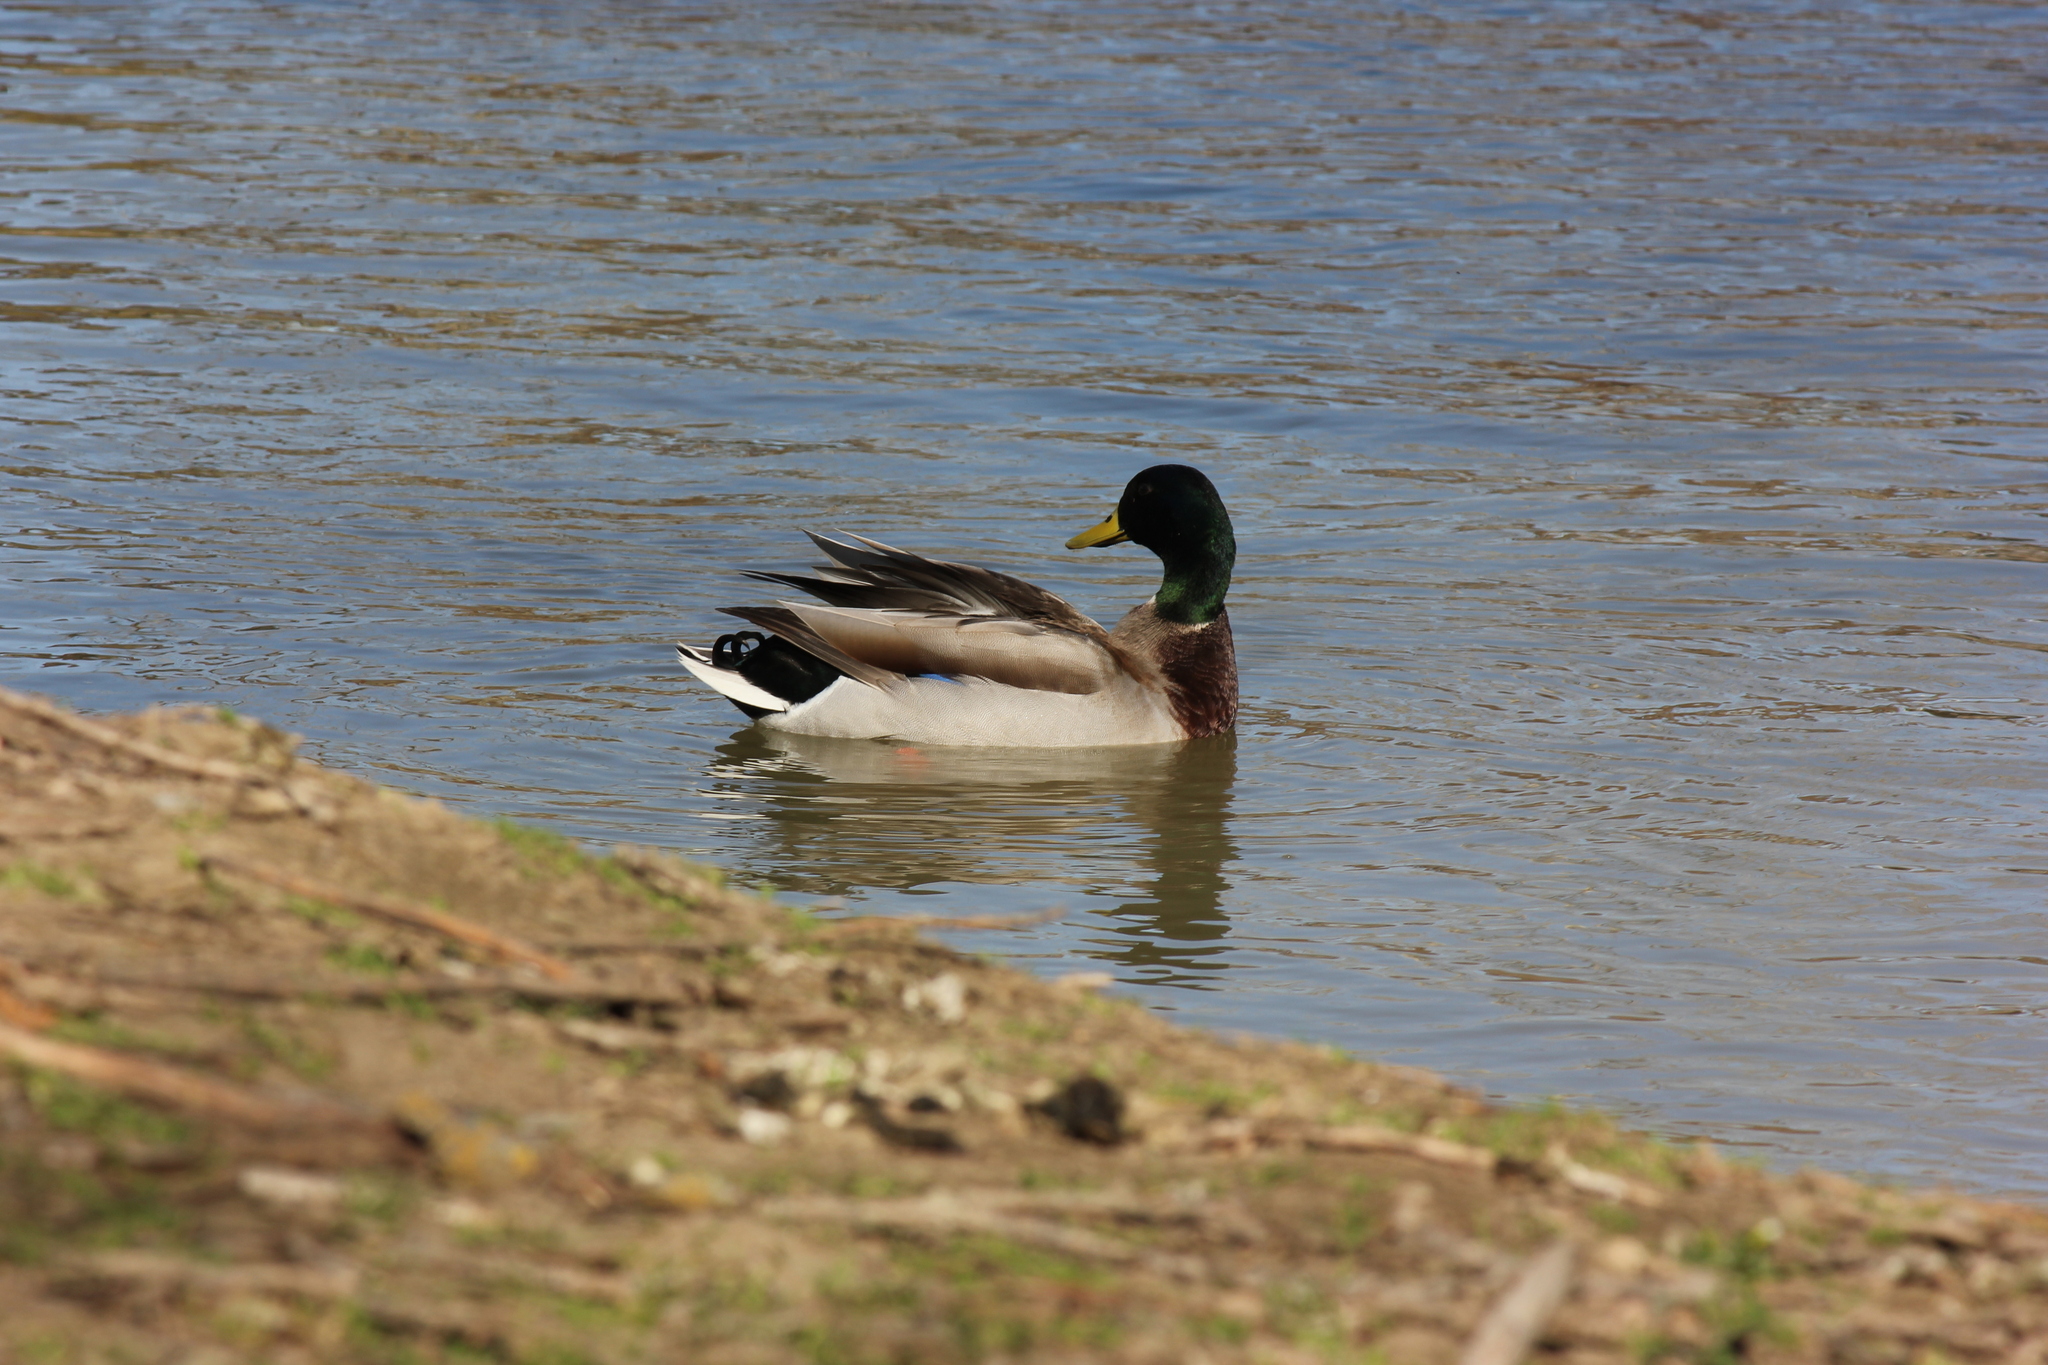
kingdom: Animalia
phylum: Chordata
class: Aves
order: Anseriformes
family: Anatidae
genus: Anas
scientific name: Anas platyrhynchos
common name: Mallard
